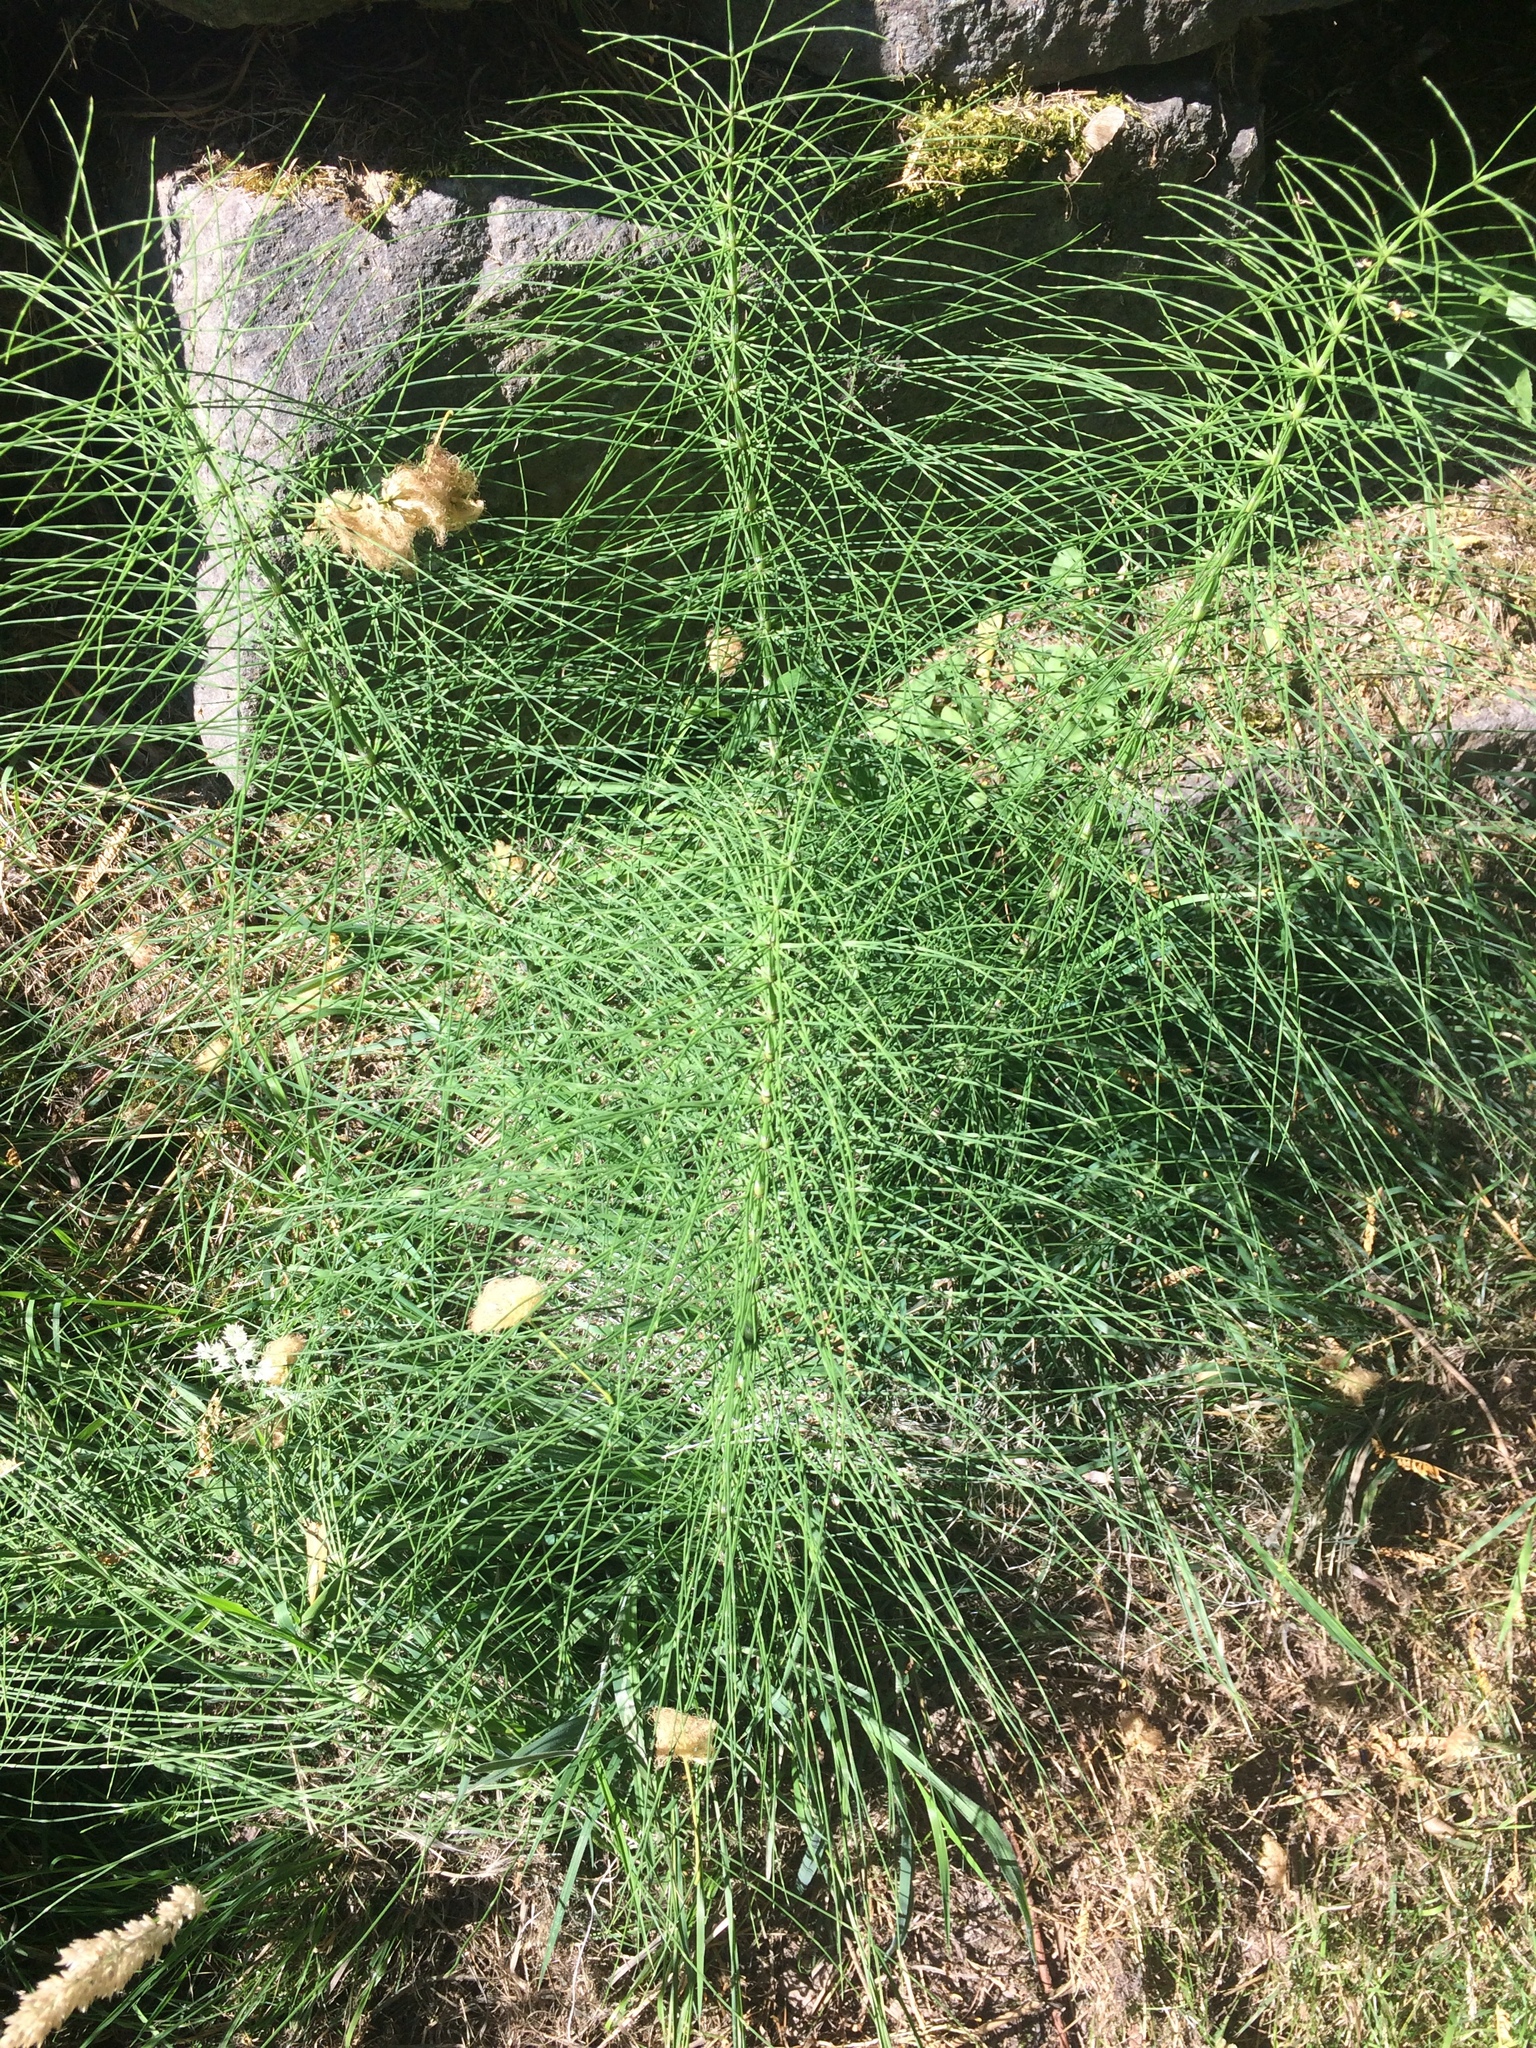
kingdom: Plantae
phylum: Tracheophyta
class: Polypodiopsida
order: Equisetales
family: Equisetaceae
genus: Equisetum
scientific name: Equisetum telmateia
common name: Great horsetail
